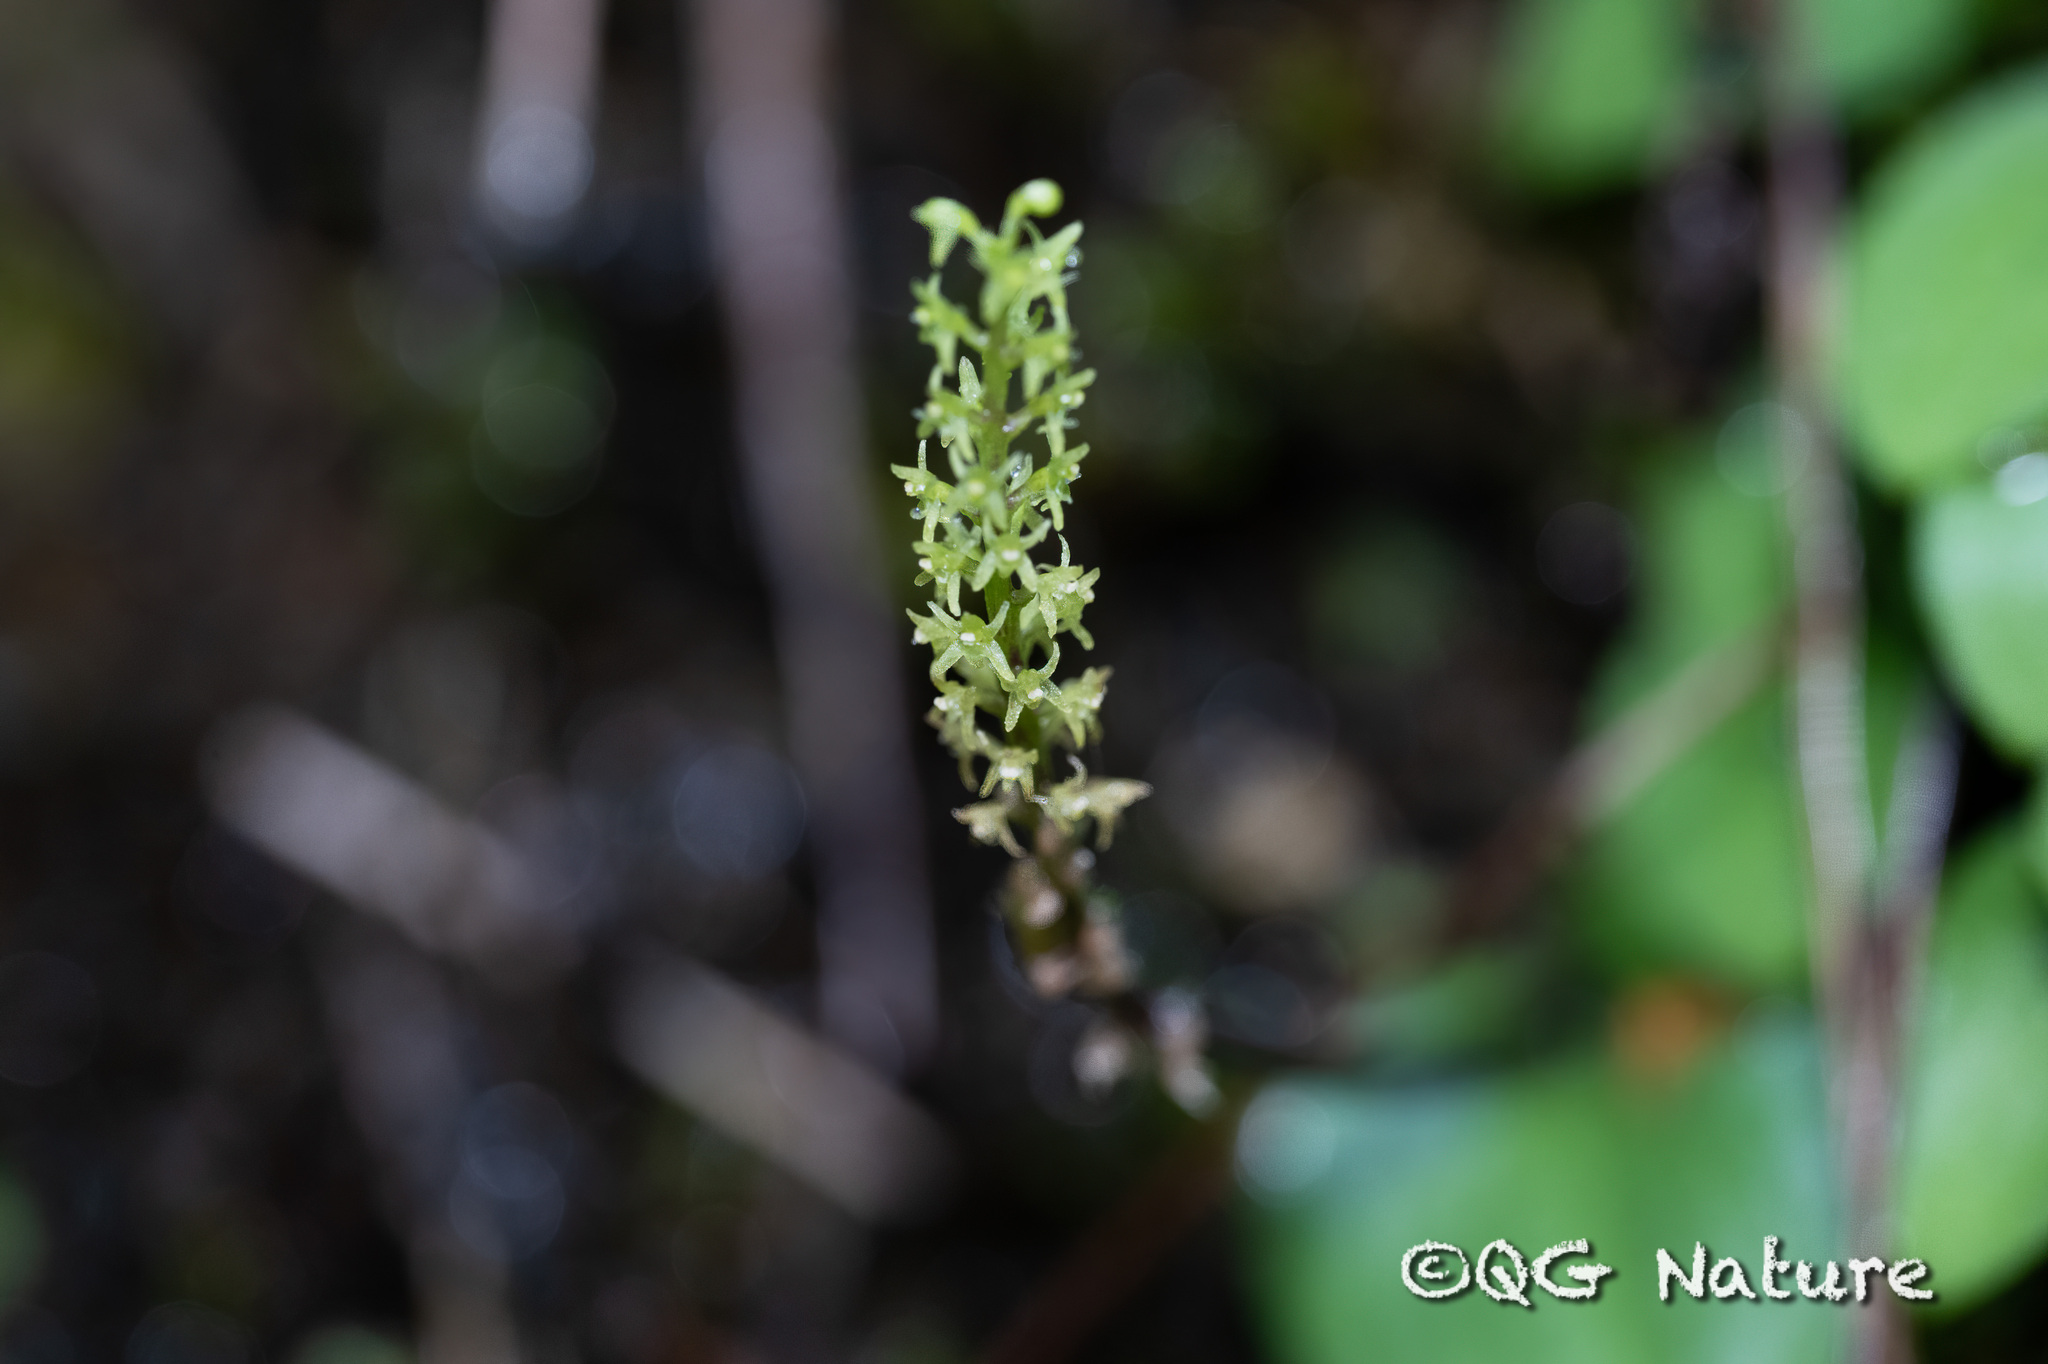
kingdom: Plantae
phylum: Tracheophyta
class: Liliopsida
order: Asparagales
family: Orchidaceae
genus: Oberonioides
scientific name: Oberonioides pusillus
